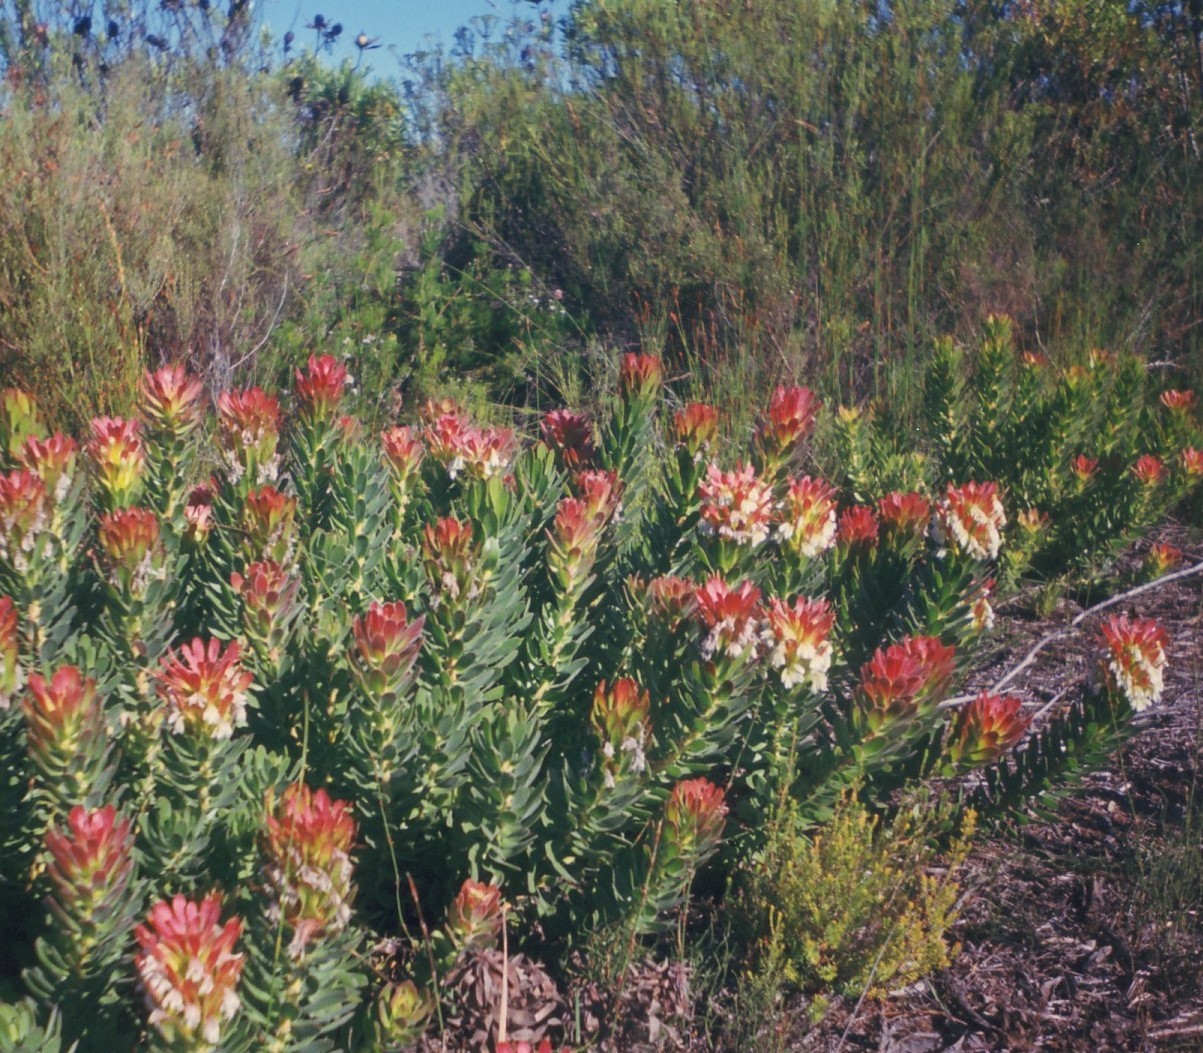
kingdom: Plantae
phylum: Tracheophyta
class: Magnoliopsida
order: Proteales
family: Proteaceae
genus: Mimetes
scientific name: Mimetes cucullatus
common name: Common pagoda
